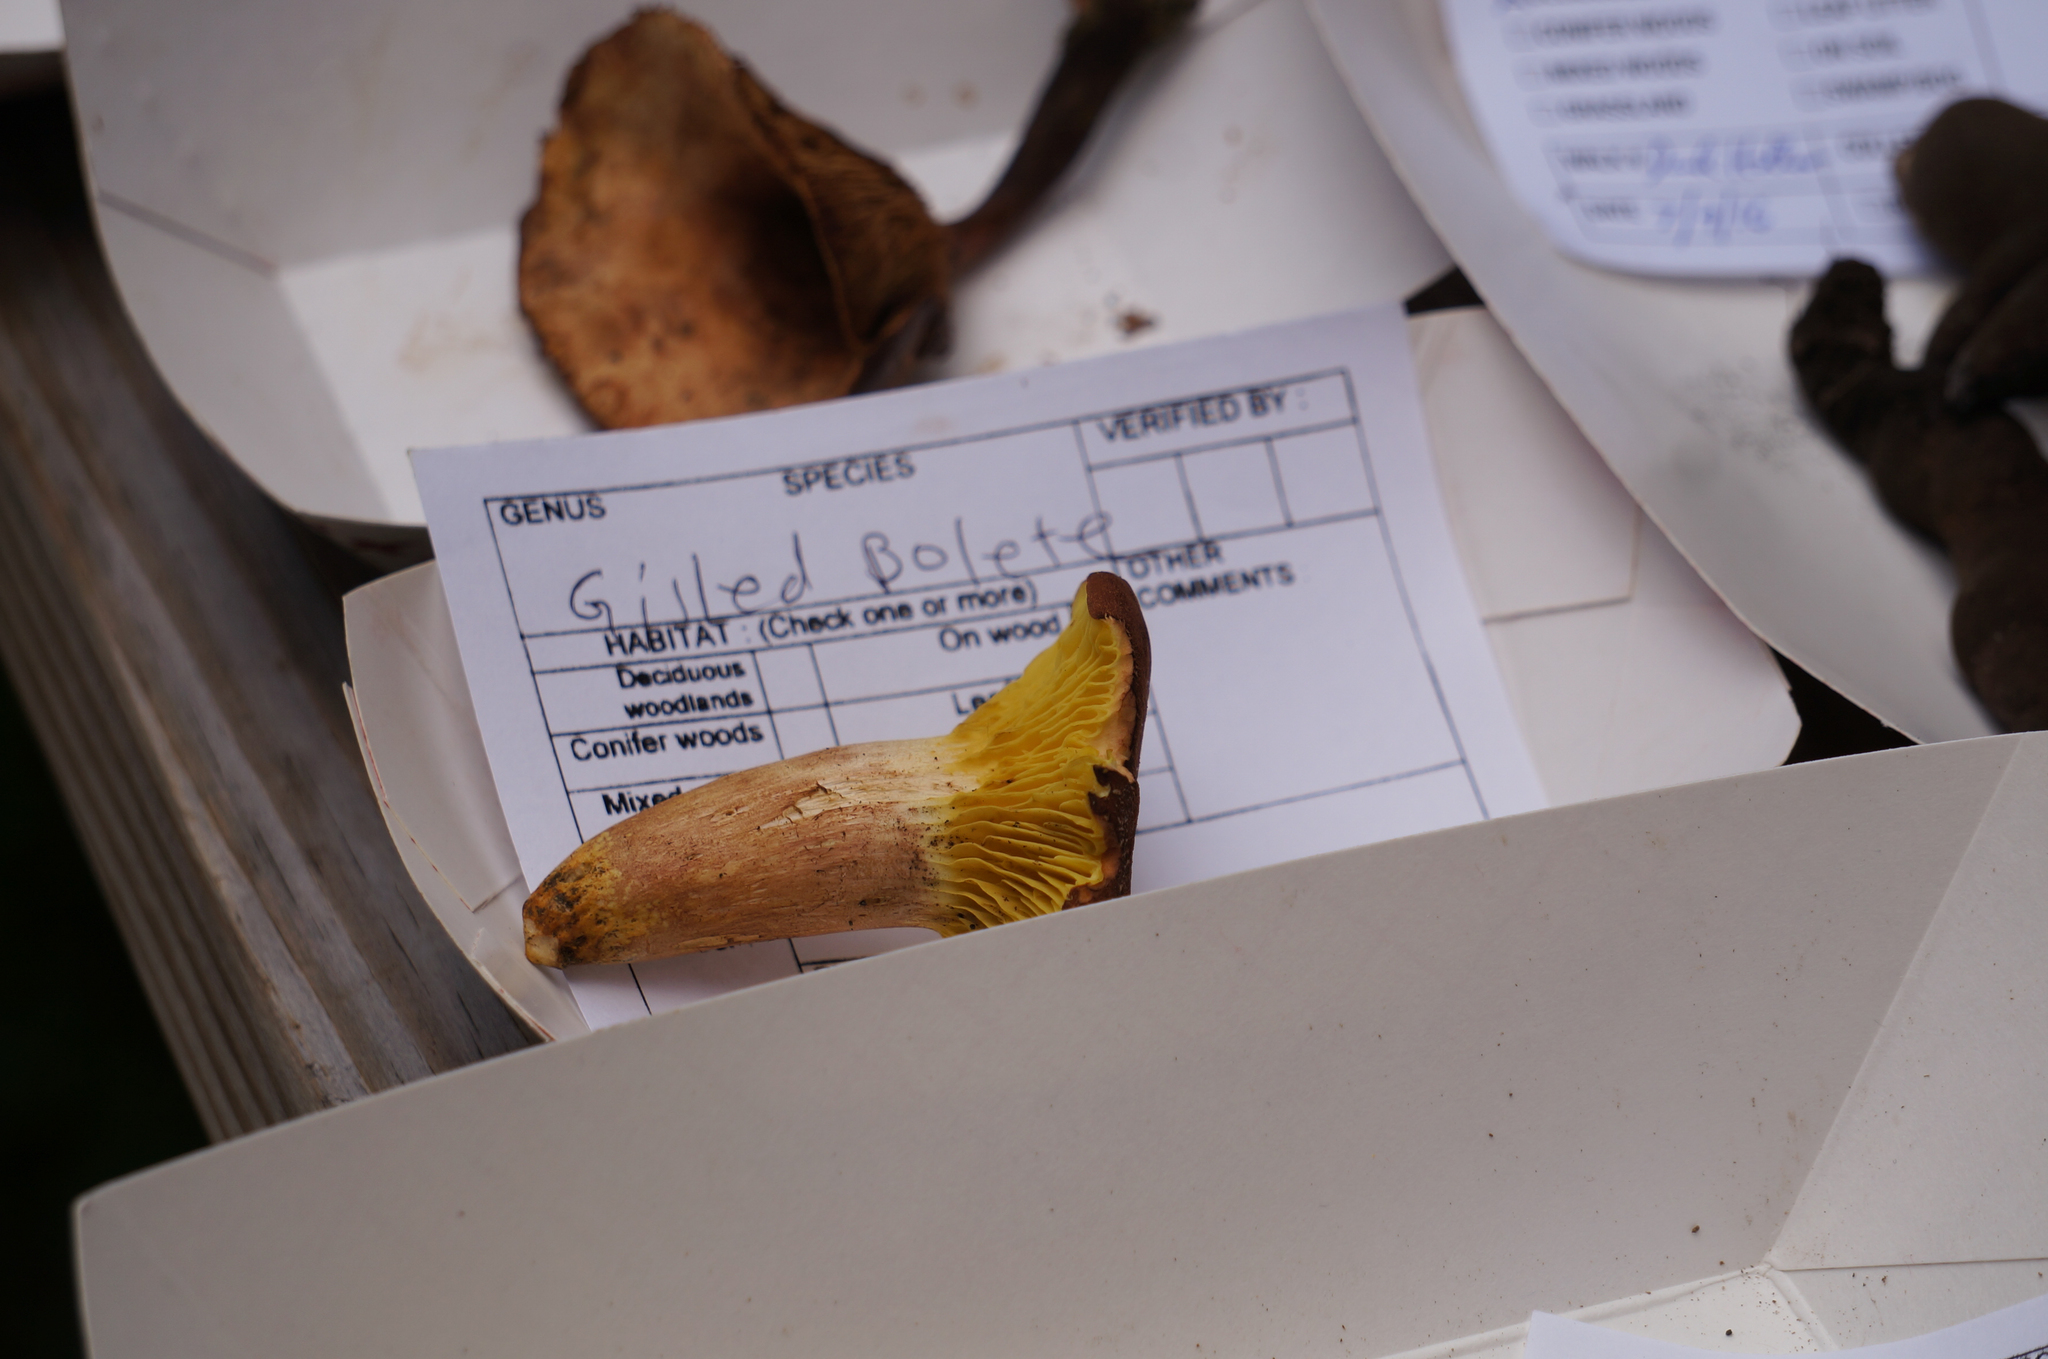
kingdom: Fungi
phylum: Basidiomycota
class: Agaricomycetes
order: Boletales
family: Boletaceae
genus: Phylloporus
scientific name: Phylloporus rhodoxanthus
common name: Golden gilled bolete
